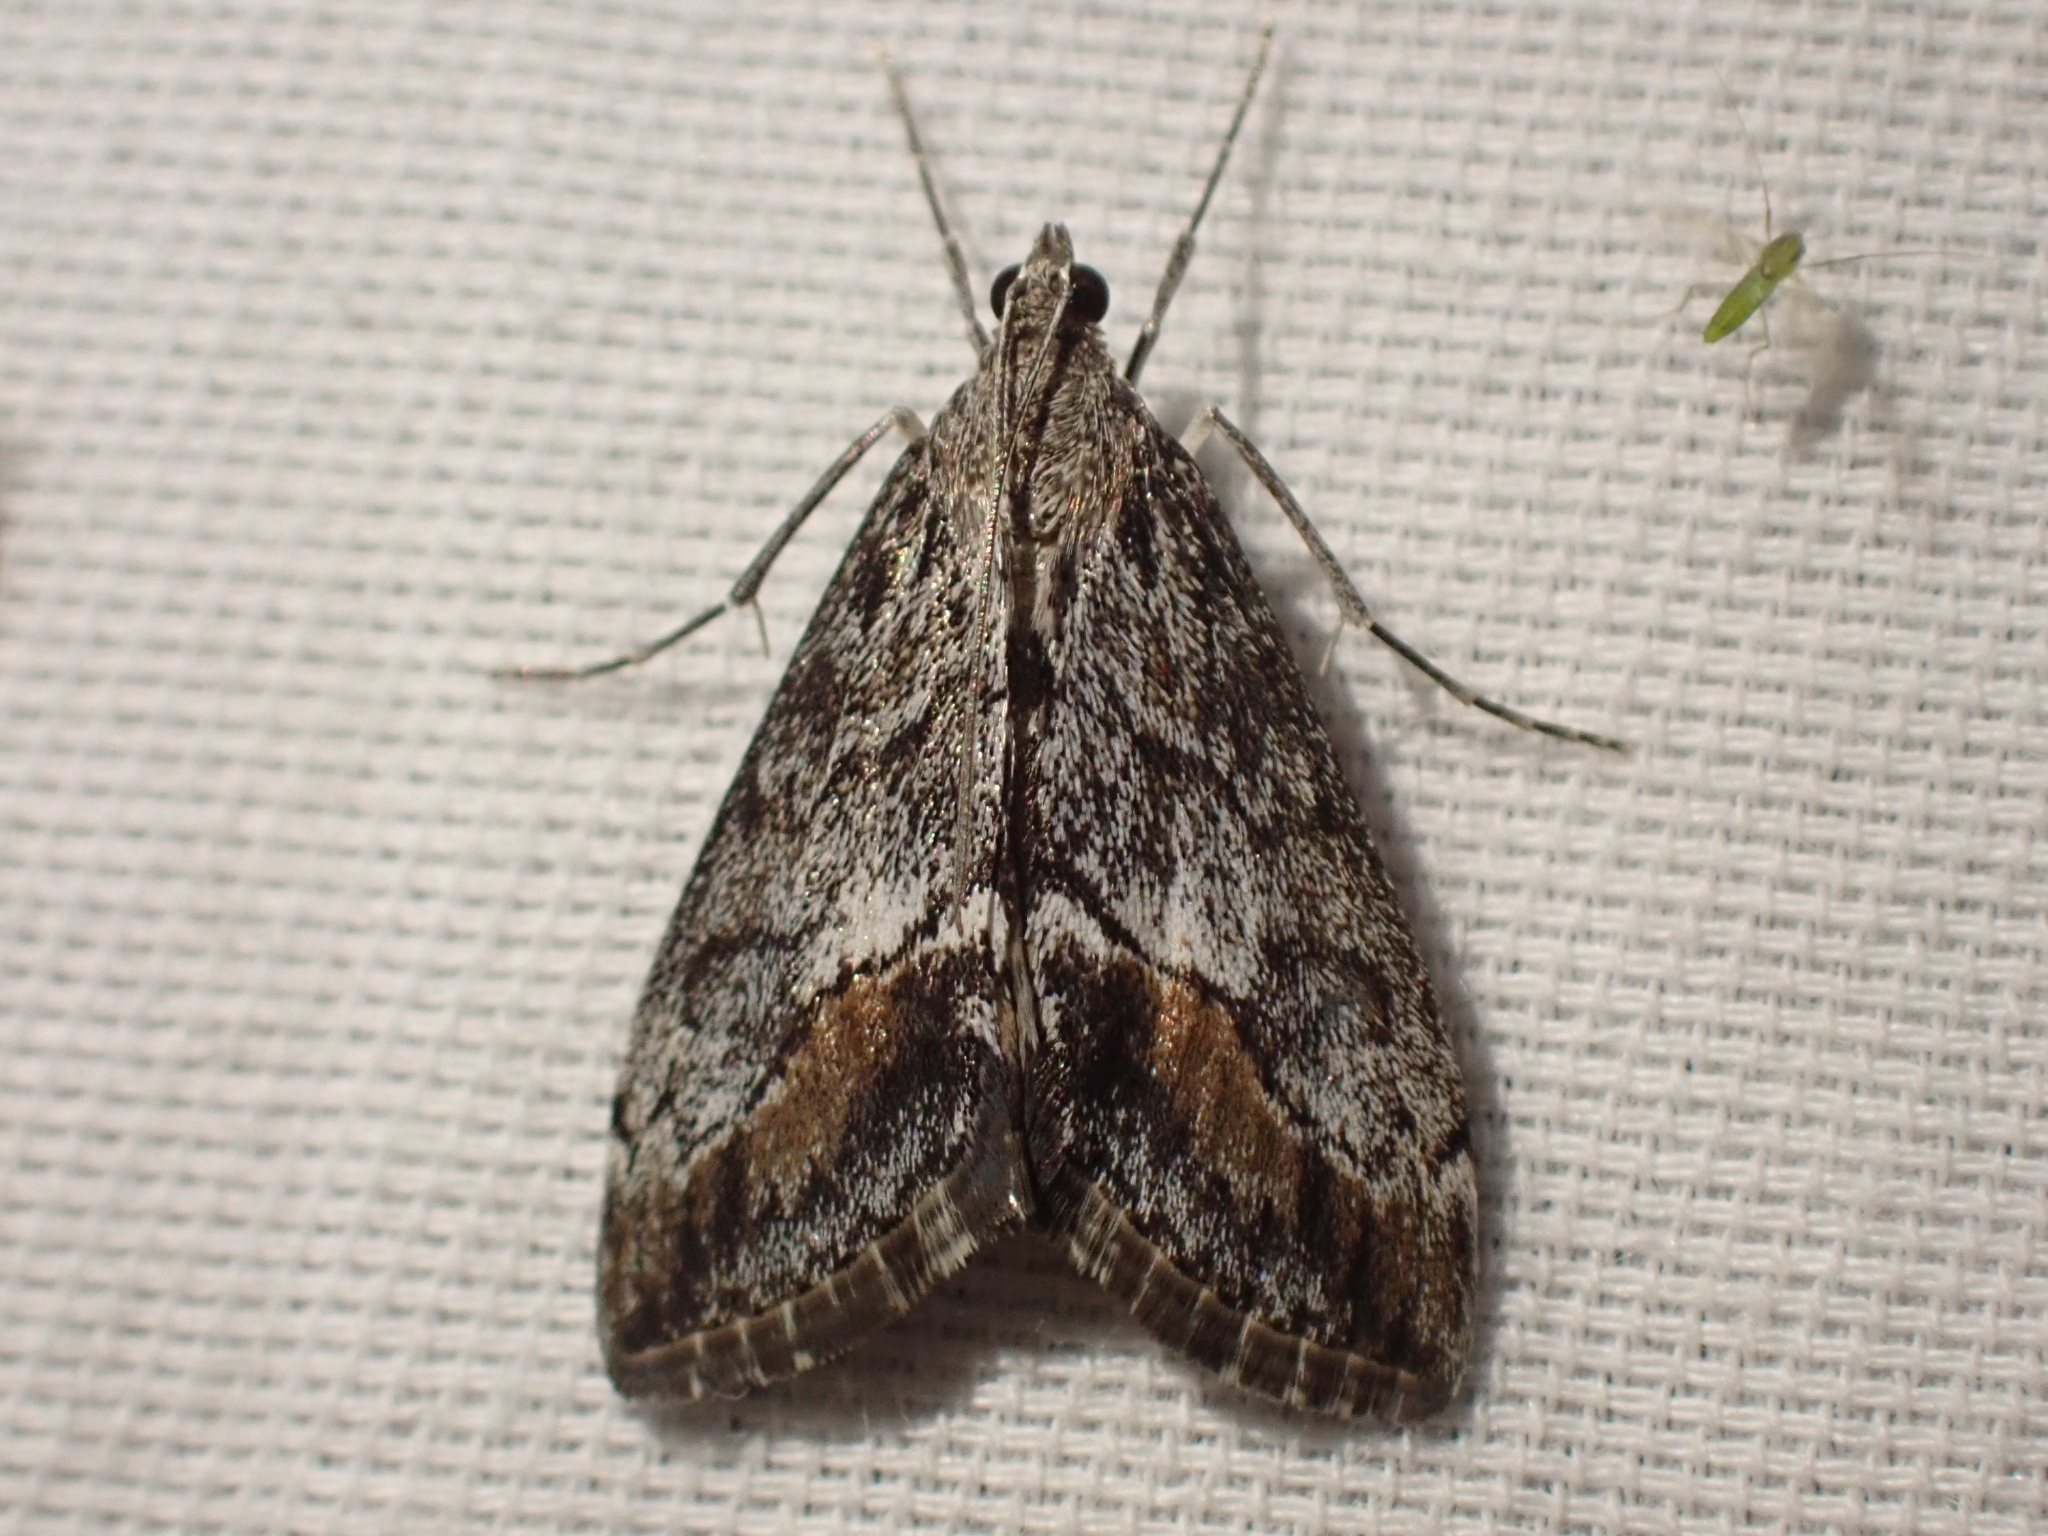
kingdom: Animalia
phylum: Arthropoda
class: Insecta
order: Lepidoptera
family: Crambidae
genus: Evergestis
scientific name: Evergestis subterminalis
